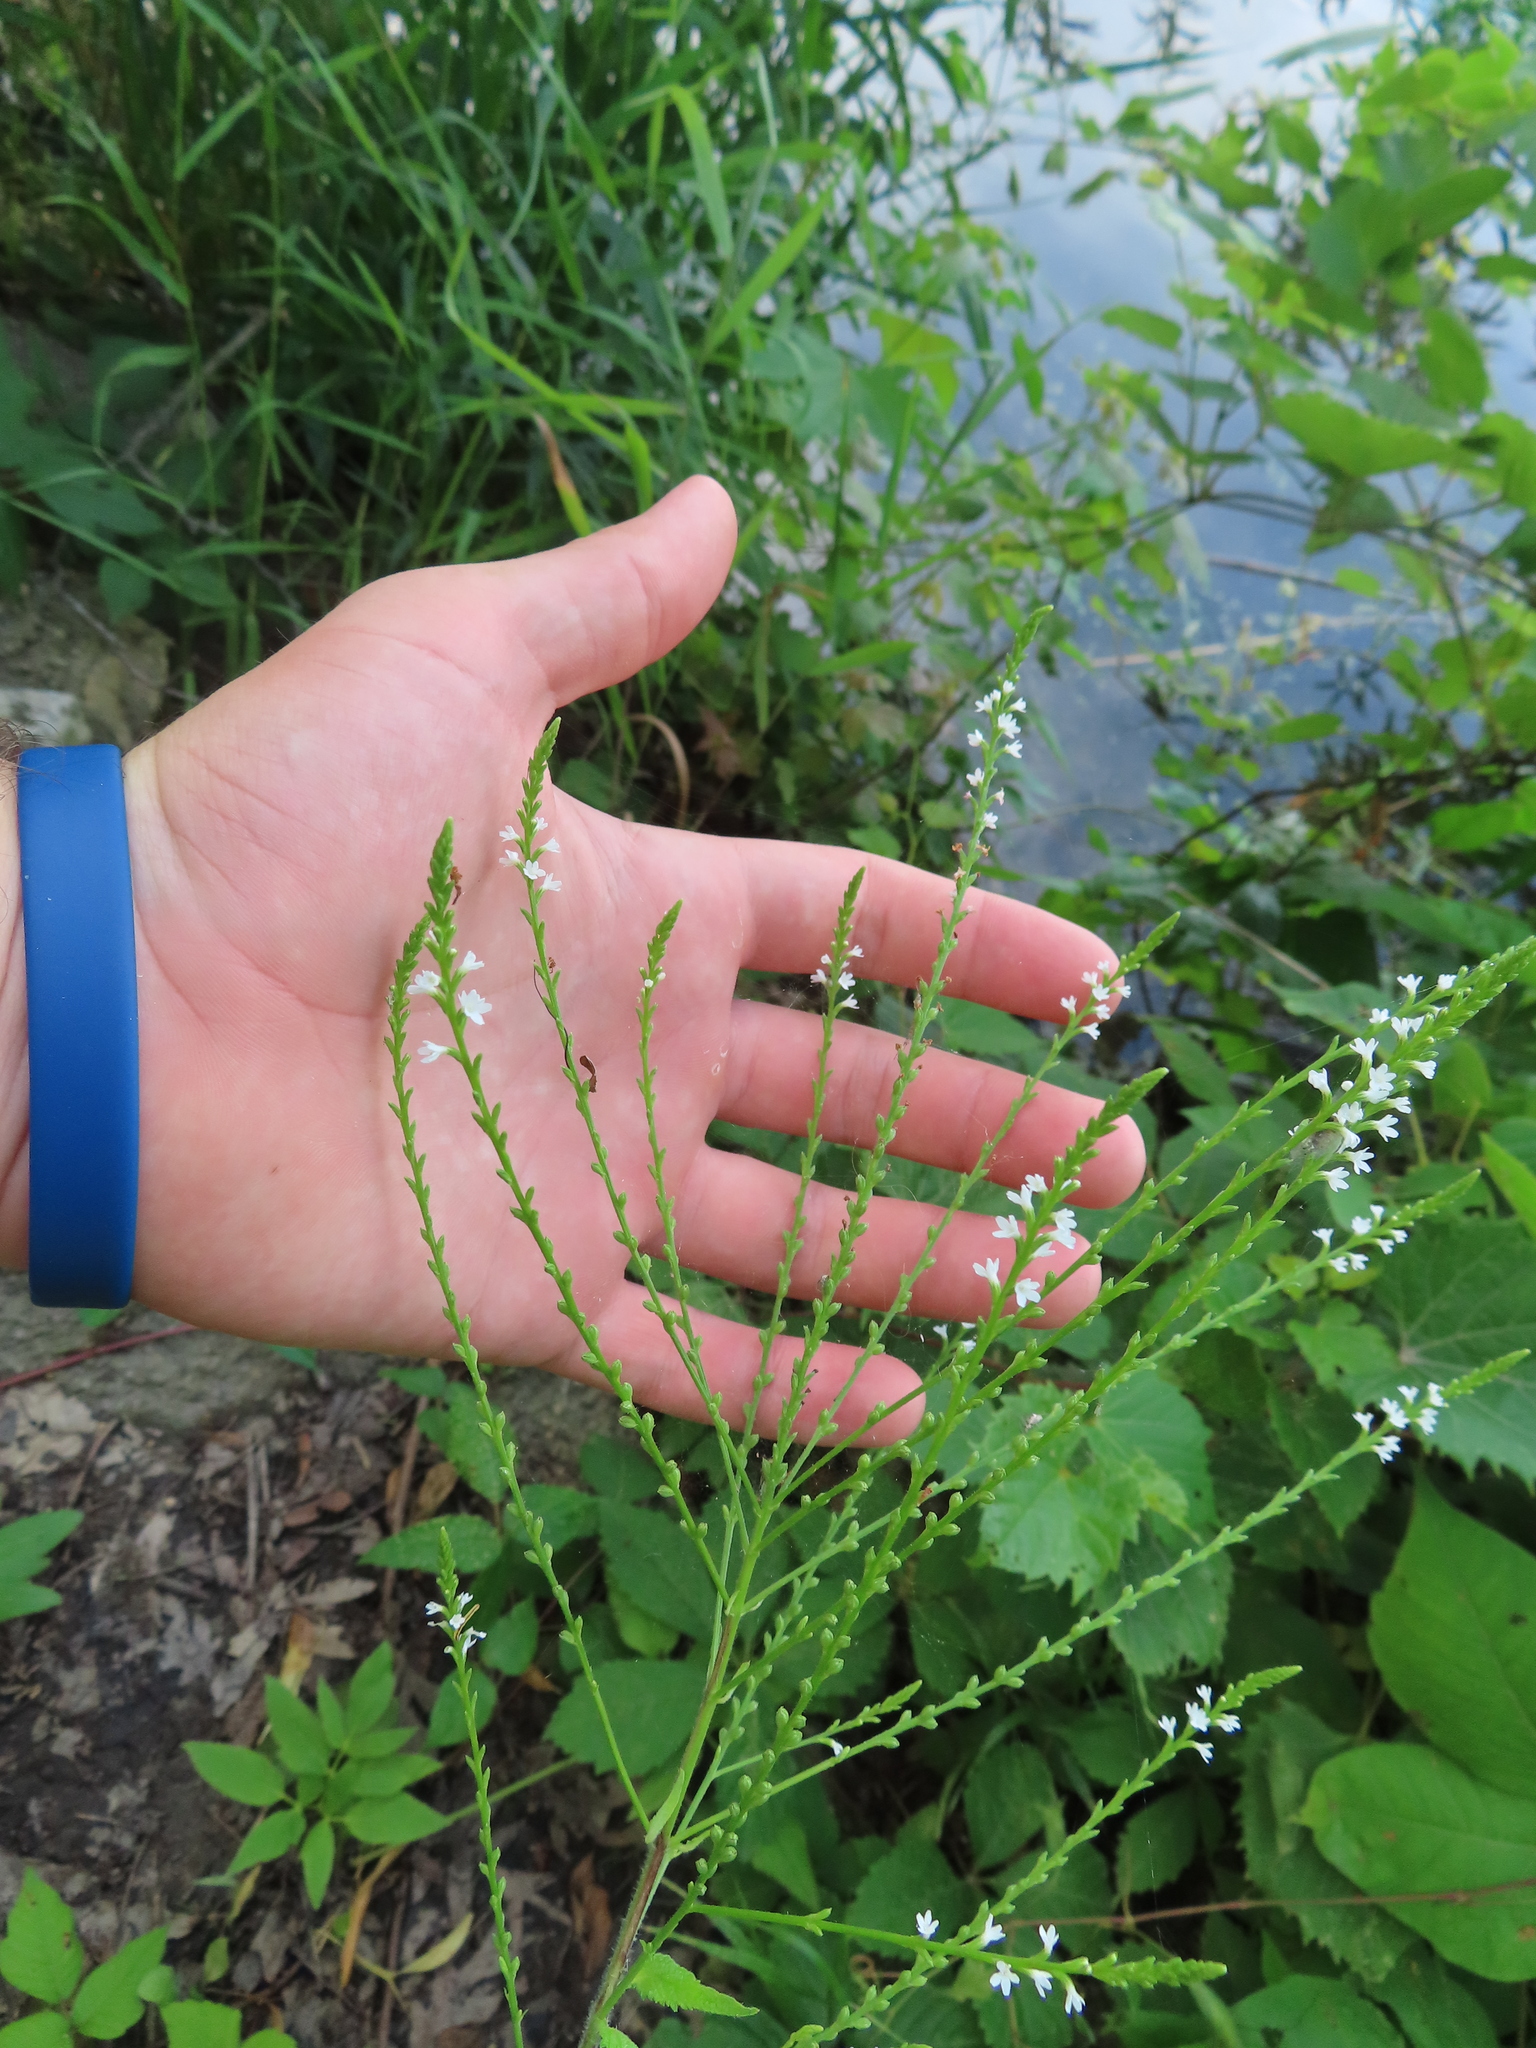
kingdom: Plantae
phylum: Tracheophyta
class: Magnoliopsida
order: Lamiales
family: Verbenaceae
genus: Verbena
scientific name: Verbena urticifolia
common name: Nettle-leaved vervain
